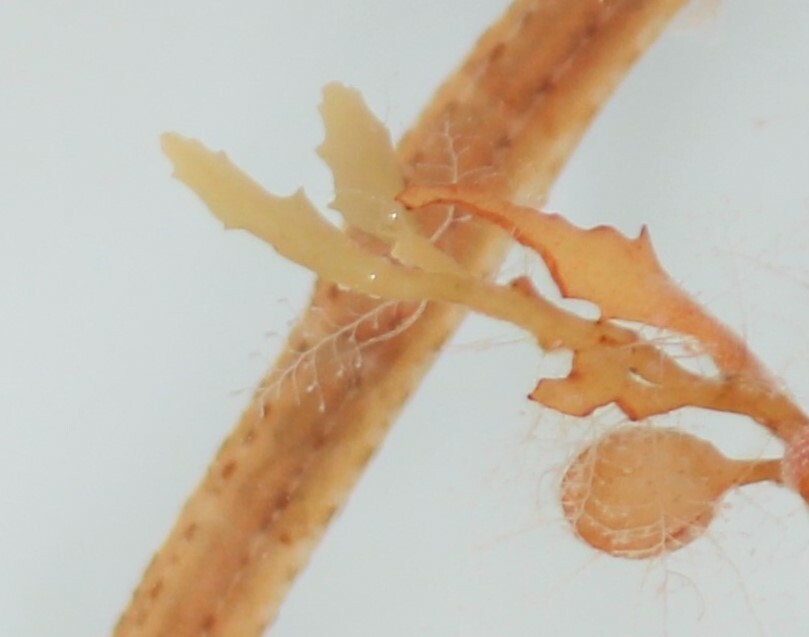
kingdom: Animalia
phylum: Cnidaria
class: Hydrozoa
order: Leptothecata
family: Kirchenpaueriidae
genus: Kirchenpaueria
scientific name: Kirchenpaueria halecioides
